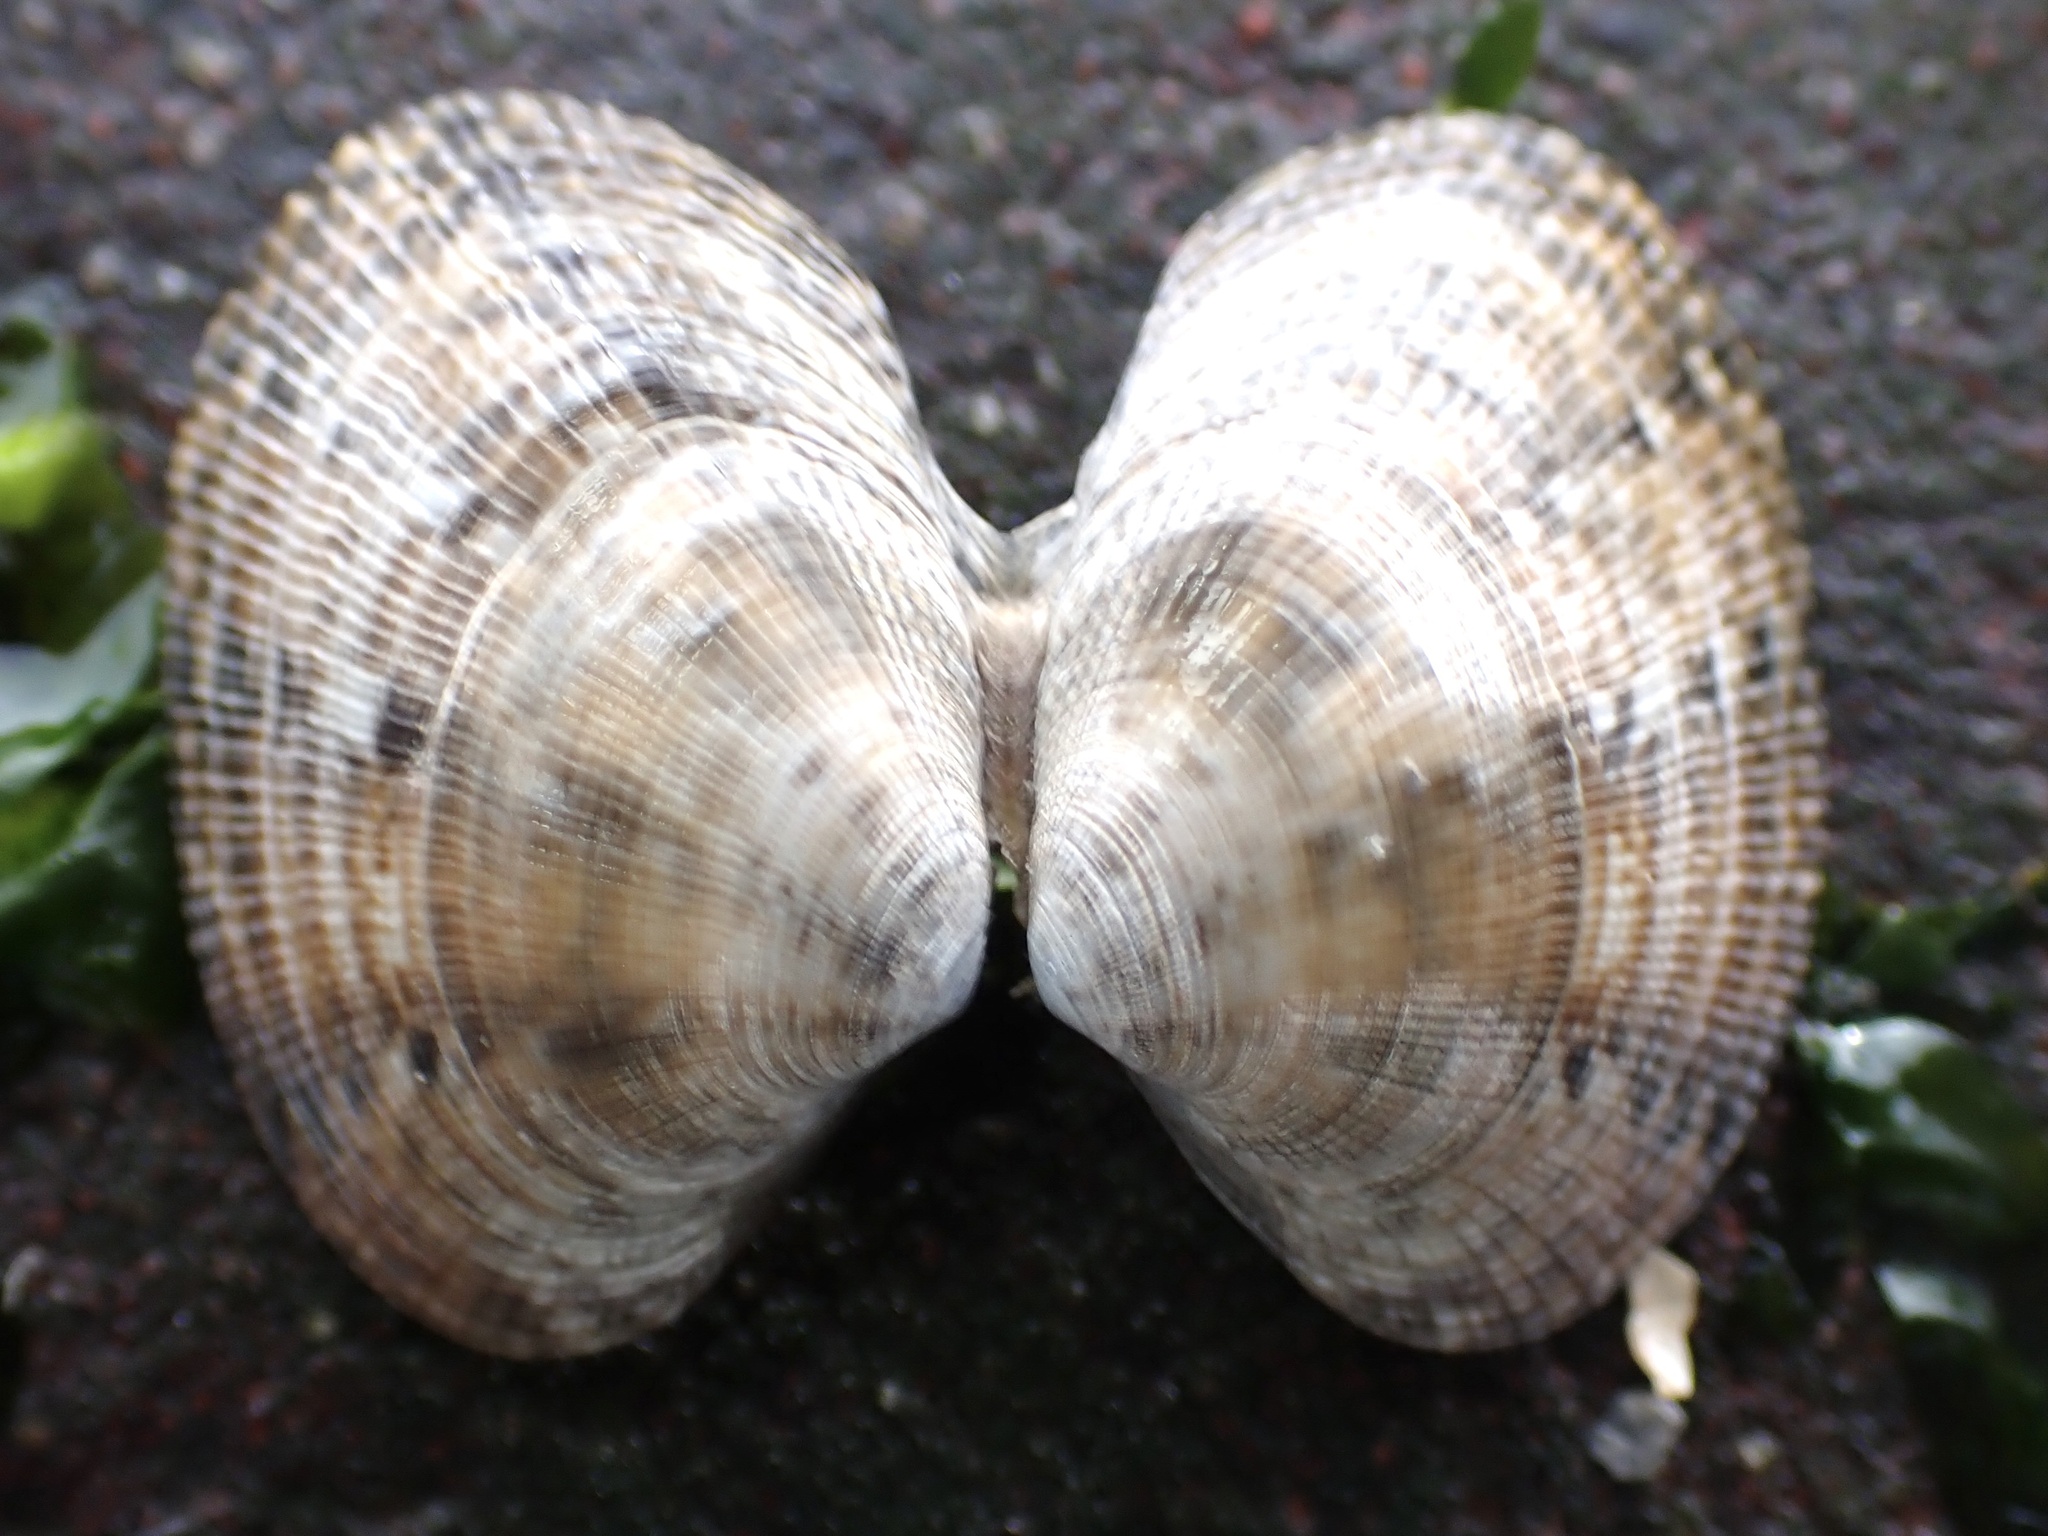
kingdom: Animalia
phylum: Mollusca
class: Bivalvia
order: Venerida
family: Veneridae
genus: Ruditapes
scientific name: Ruditapes philippinarum
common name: Manila clam
